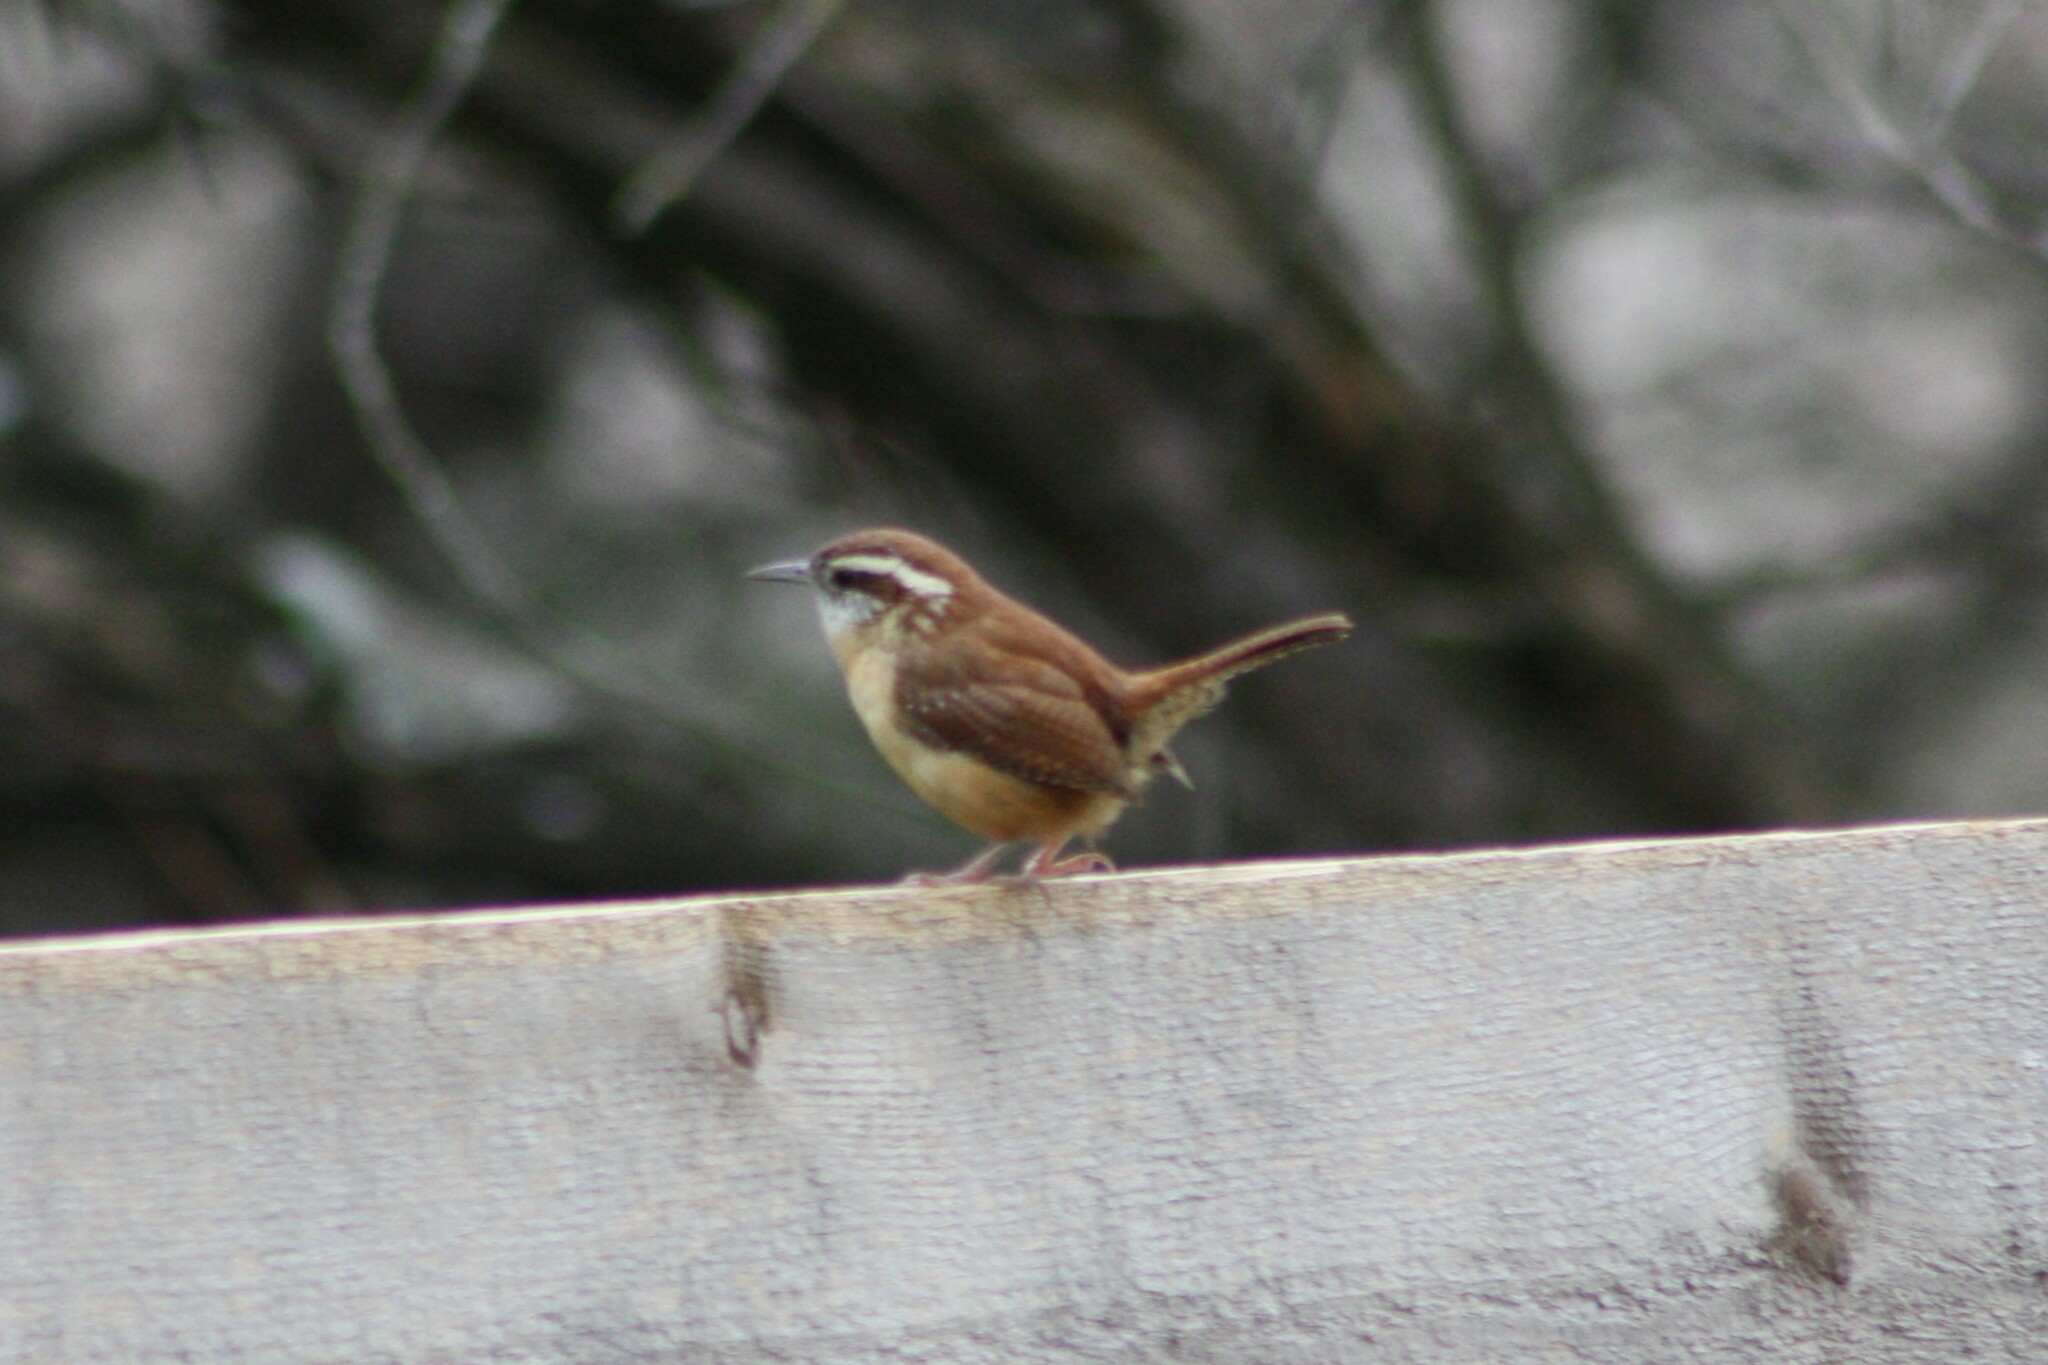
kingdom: Animalia
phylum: Chordata
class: Aves
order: Passeriformes
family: Troglodytidae
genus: Thryothorus
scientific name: Thryothorus ludovicianus
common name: Carolina wren
